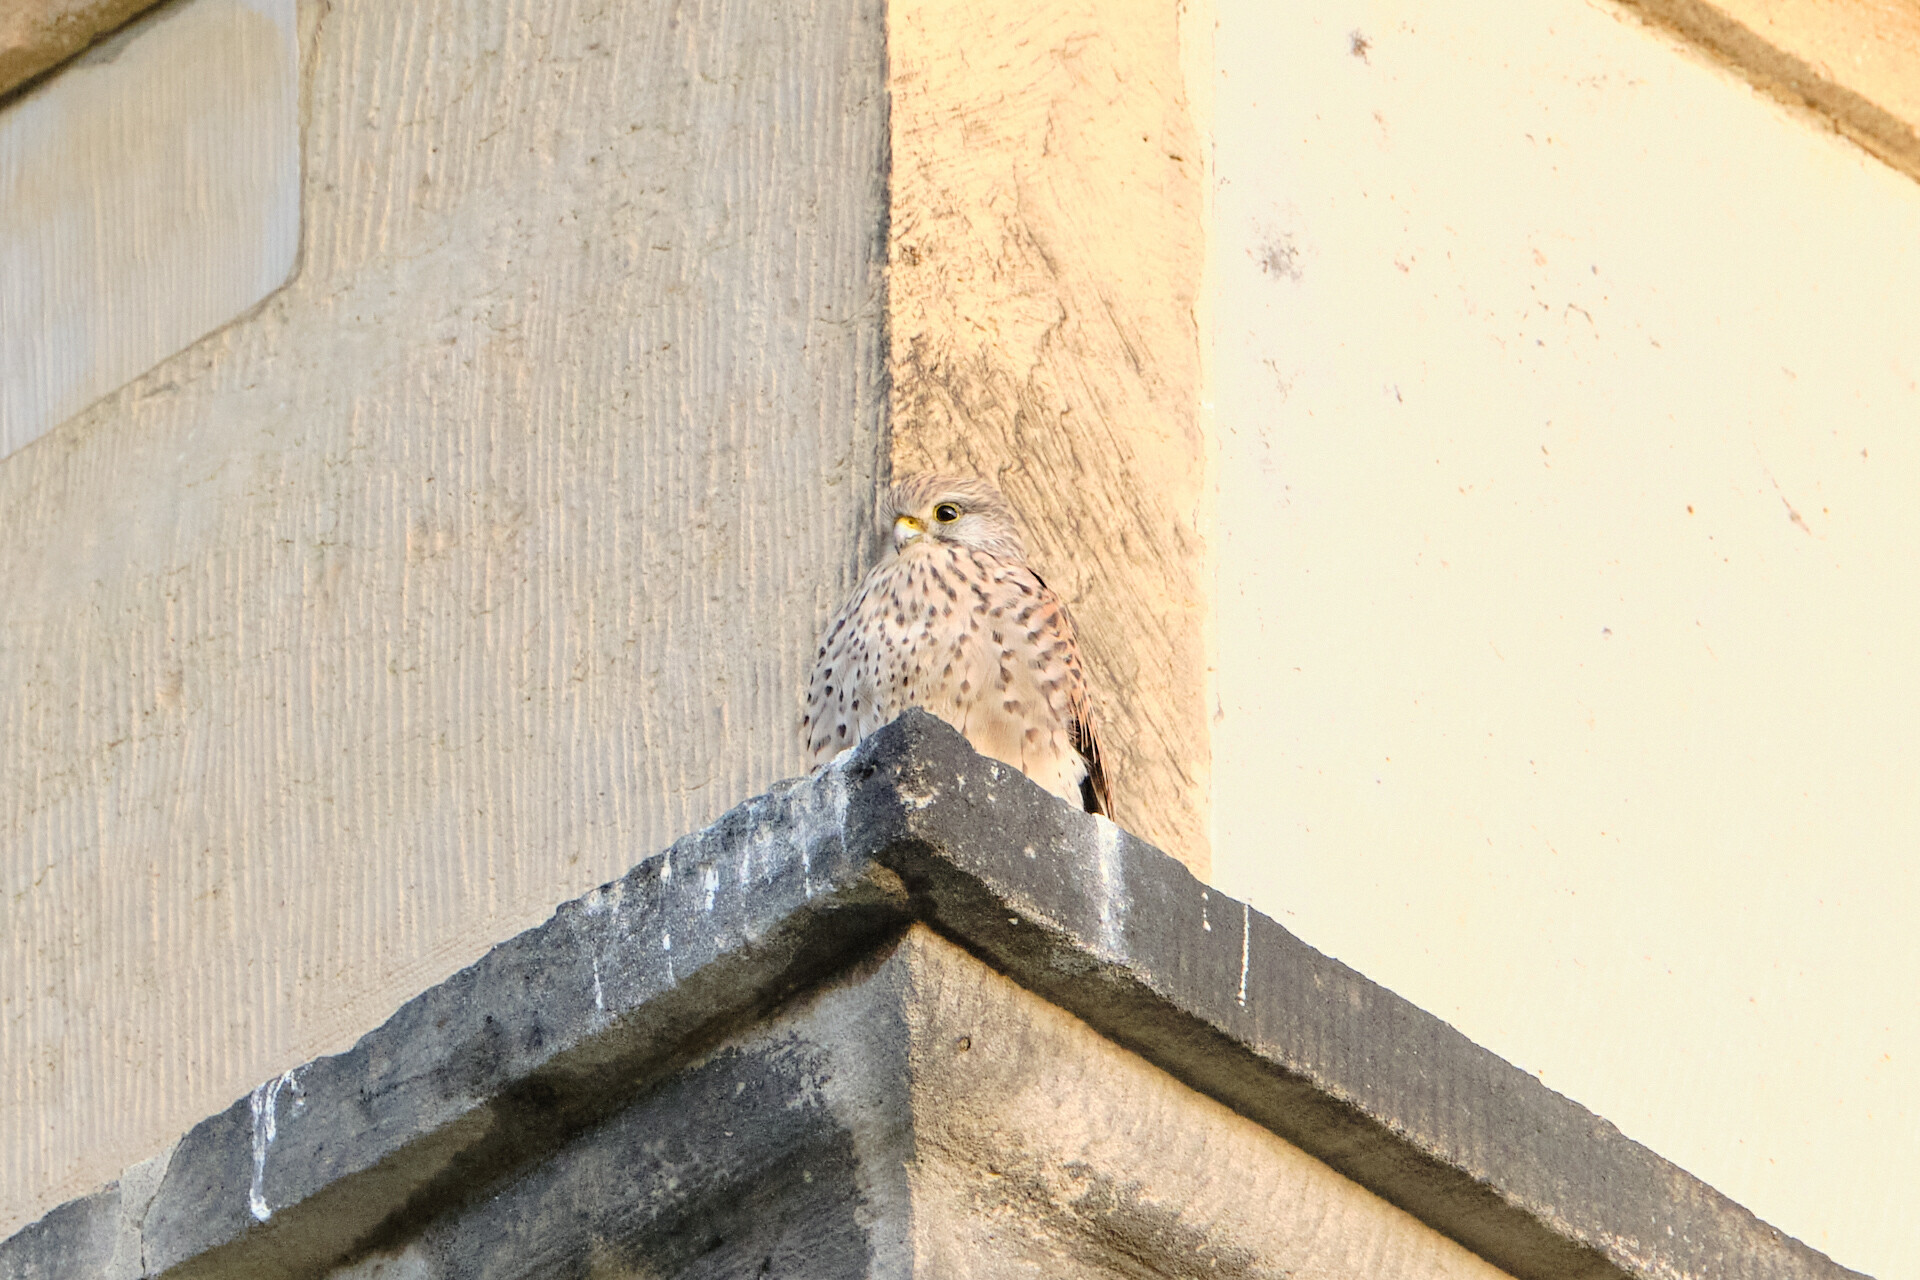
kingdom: Animalia
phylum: Chordata
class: Aves
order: Falconiformes
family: Falconidae
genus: Falco
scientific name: Falco tinnunculus
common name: Common kestrel
